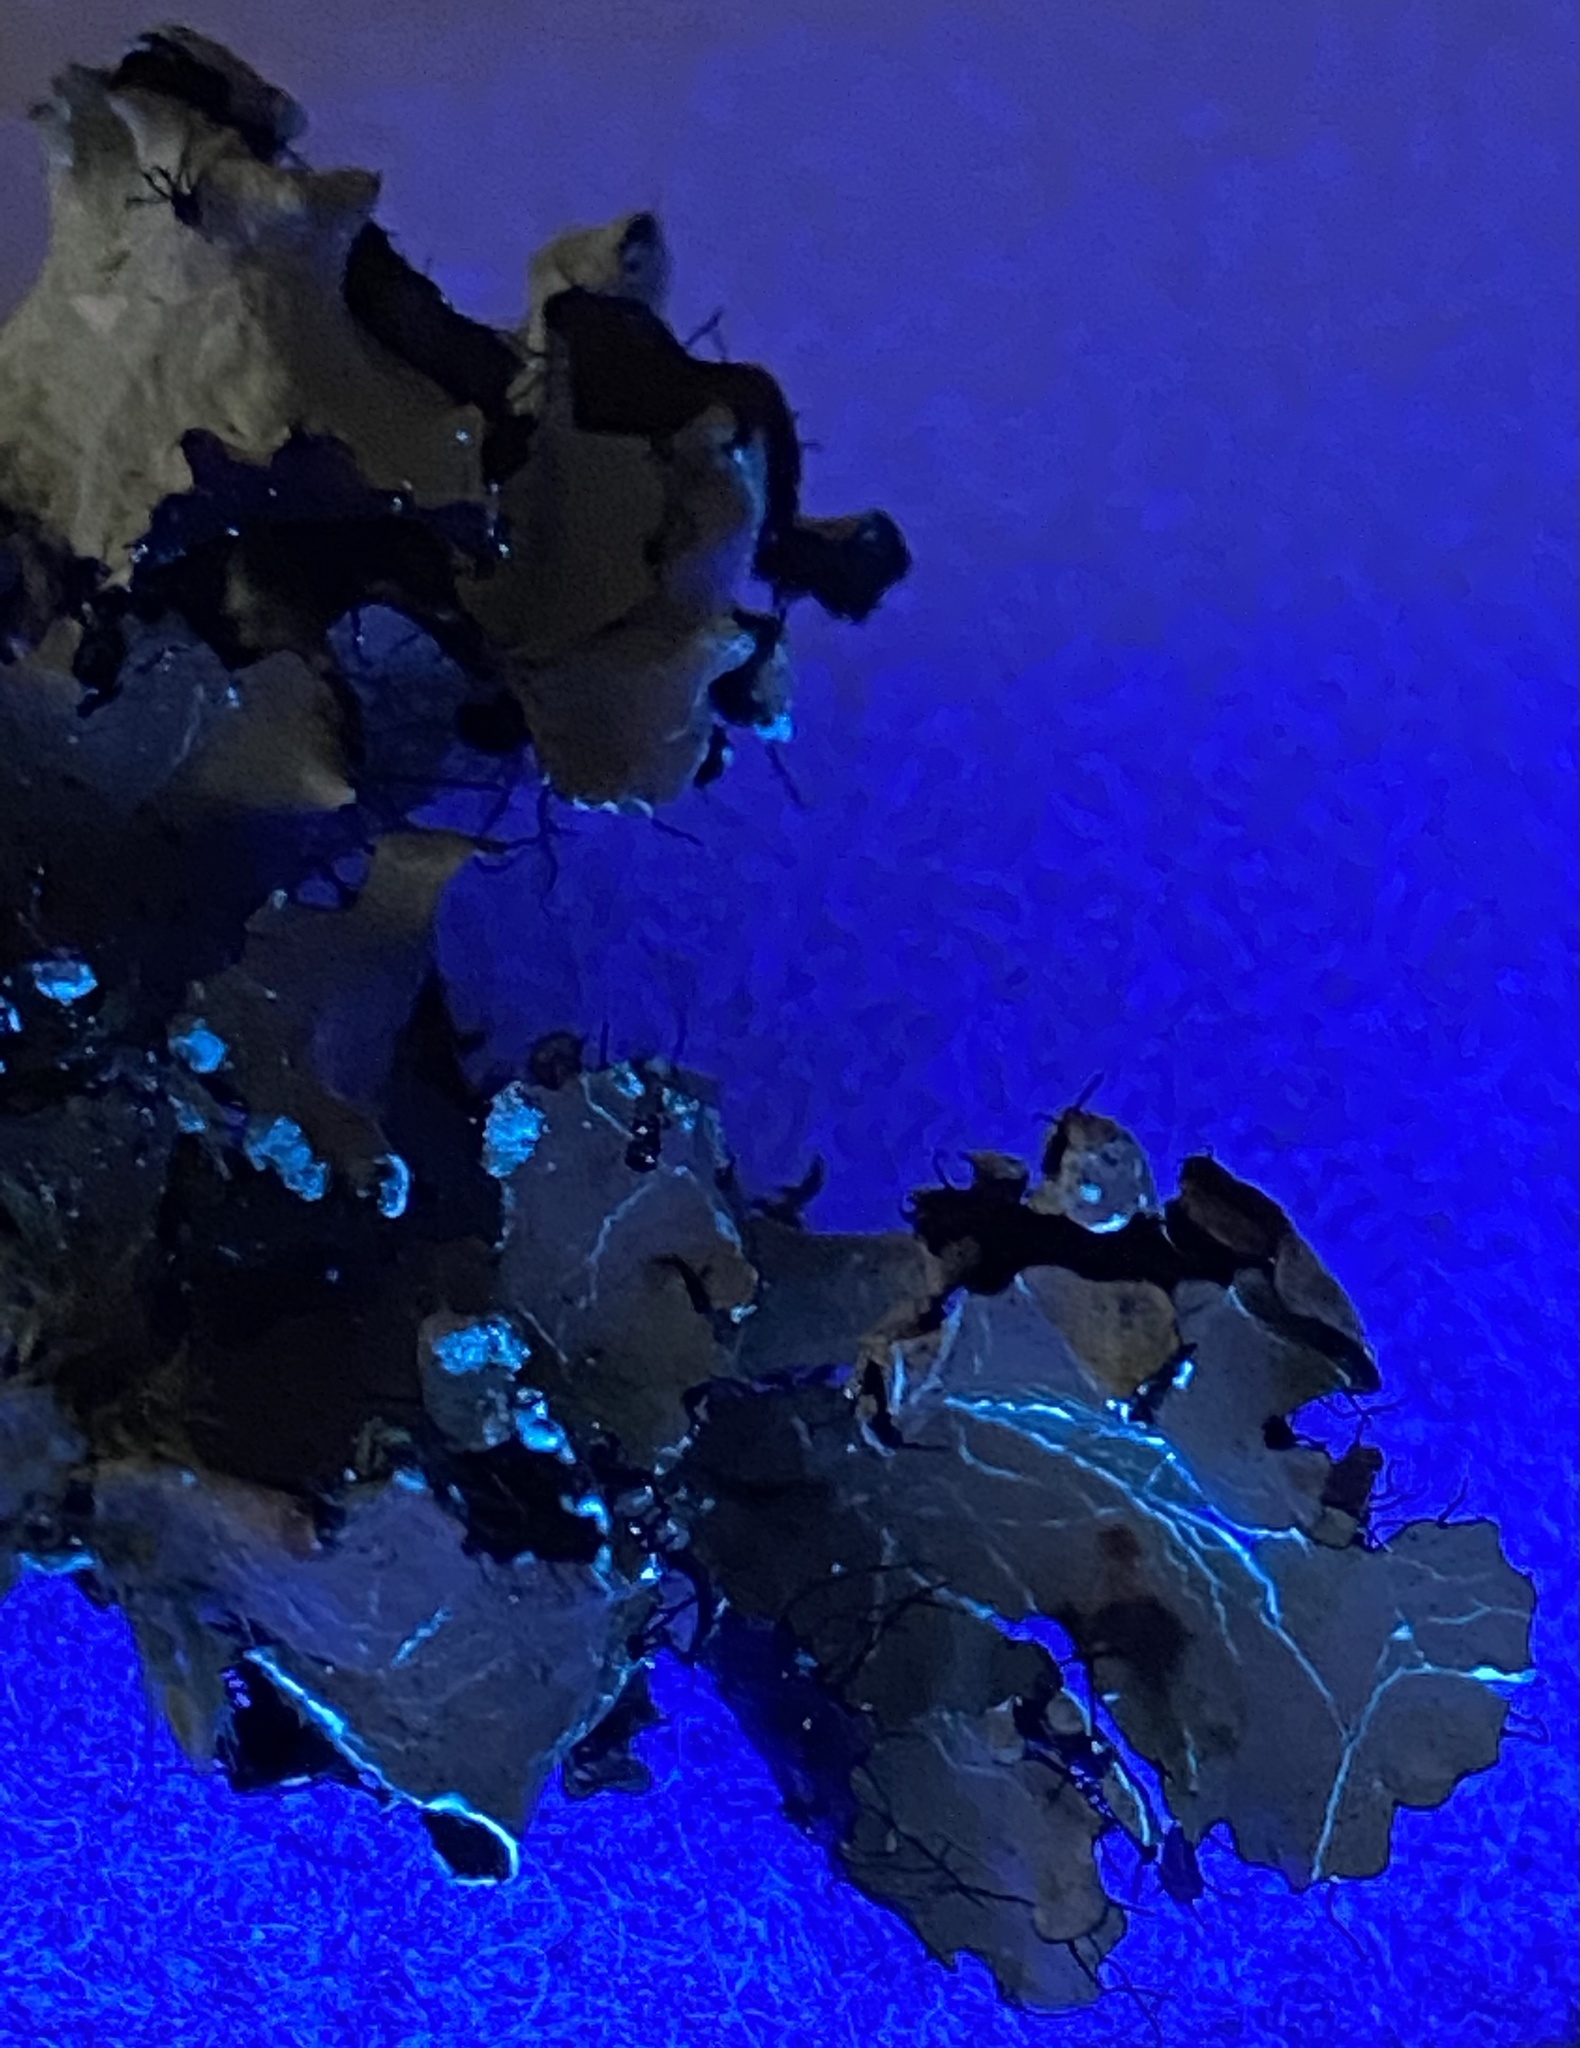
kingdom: Fungi
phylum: Ascomycota
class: Lecanoromycetes
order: Lecanorales
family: Parmeliaceae
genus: Parmotrema
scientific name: Parmotrema arnoldii
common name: Arnold's parmotrema lichen
